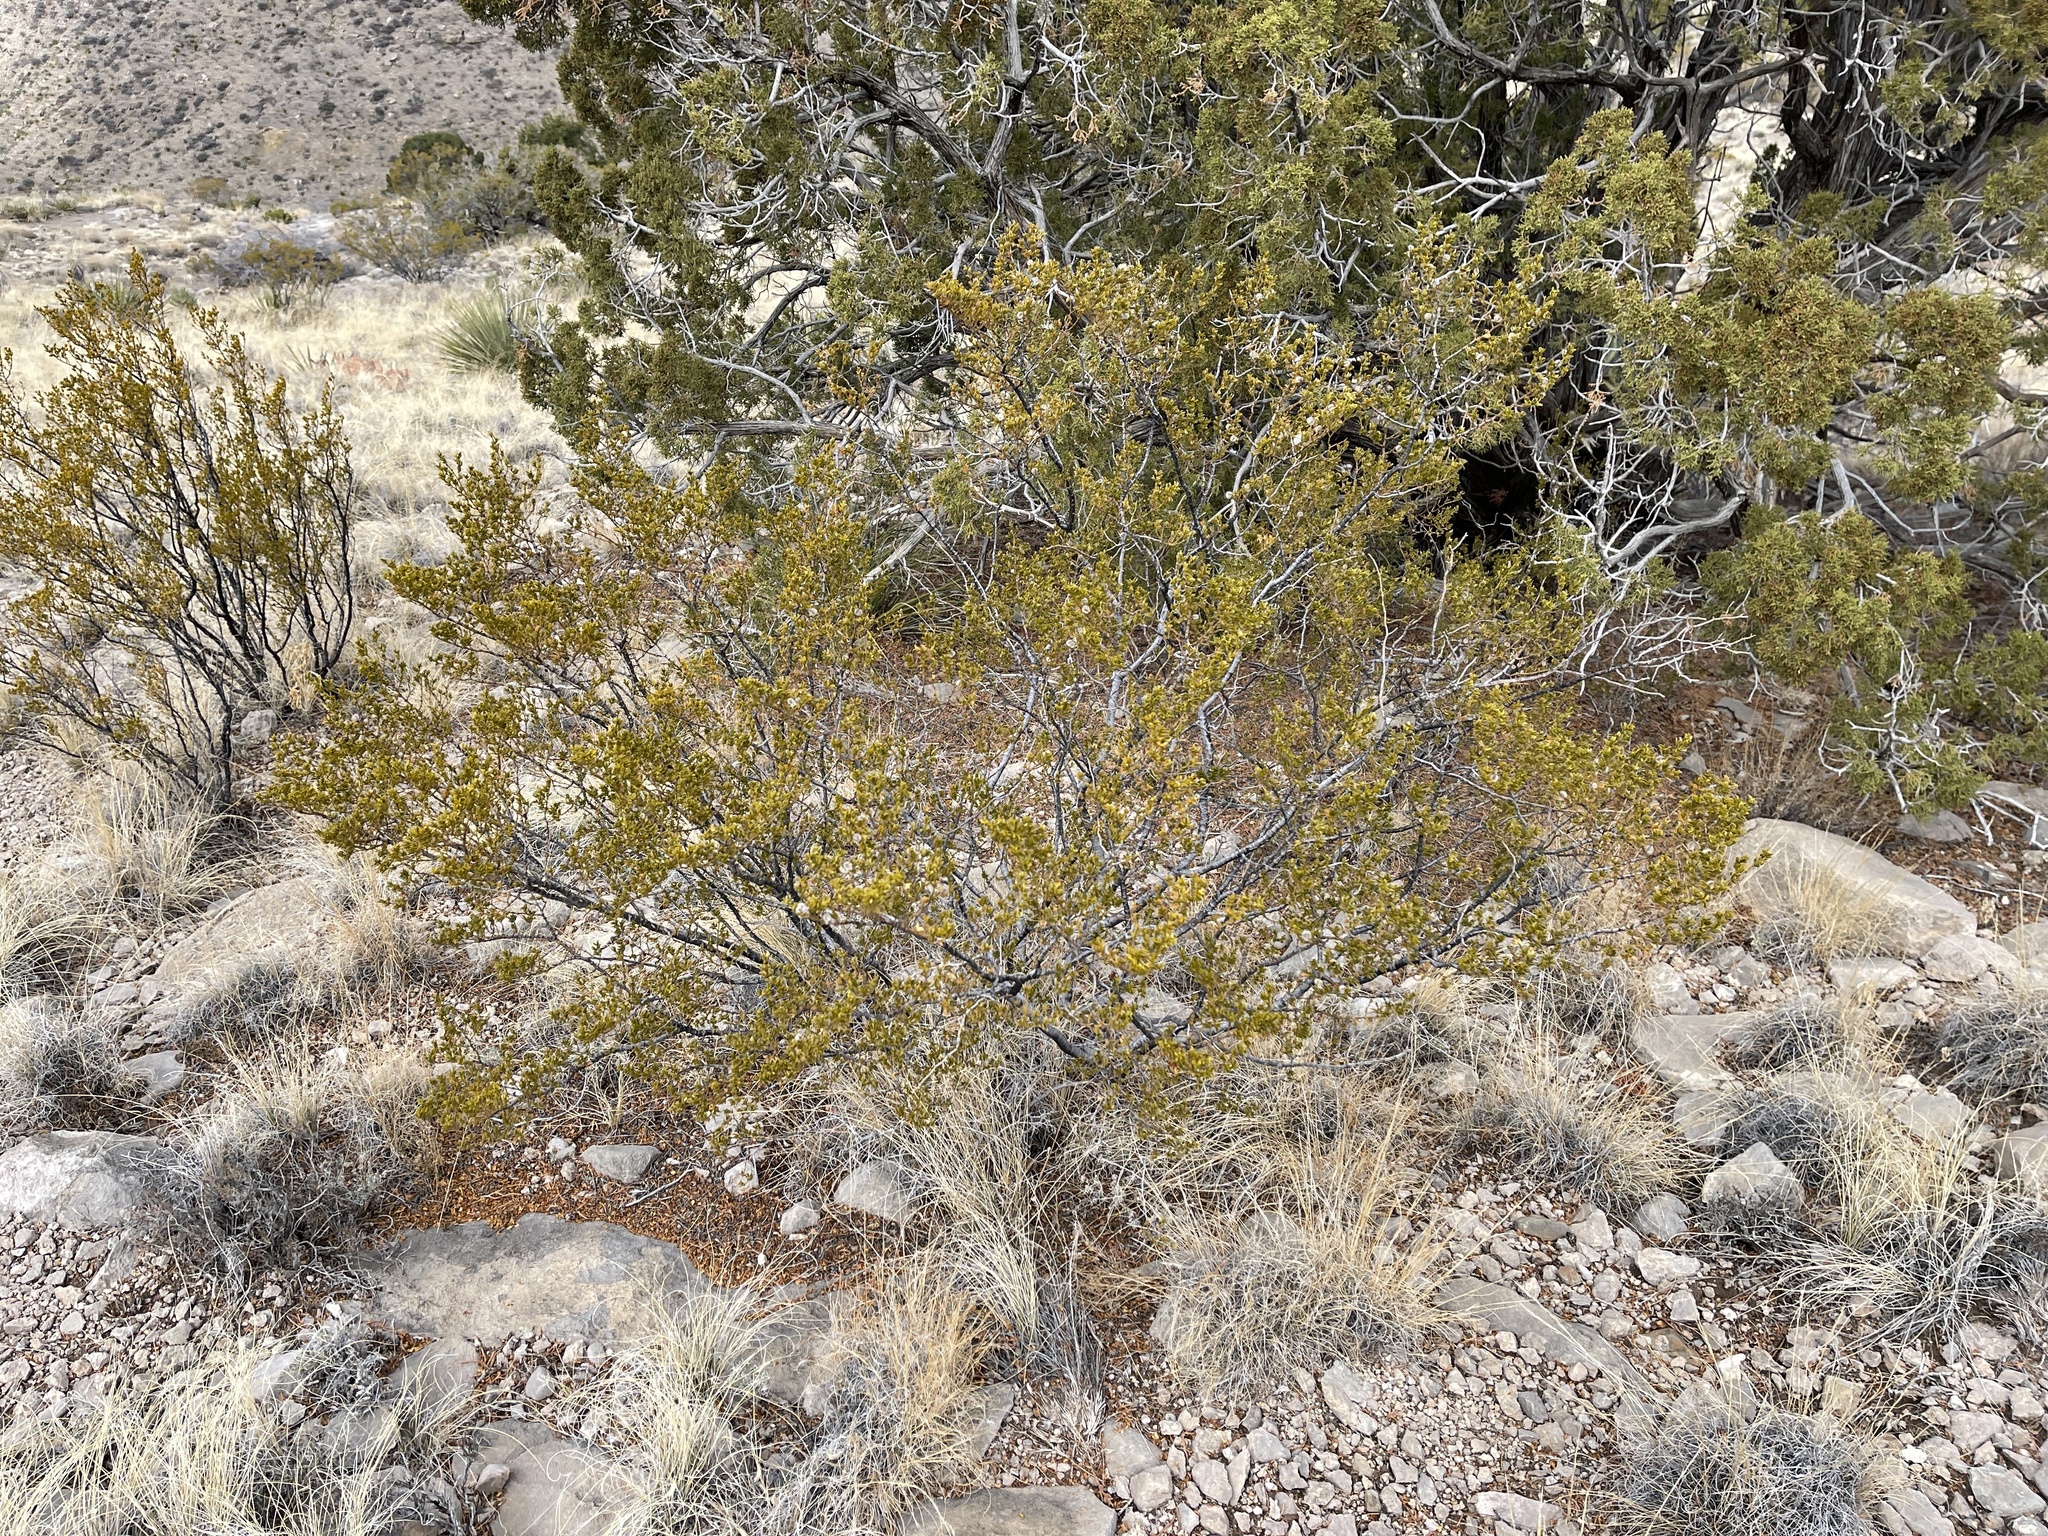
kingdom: Plantae
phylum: Tracheophyta
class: Magnoliopsida
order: Zygophyllales
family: Zygophyllaceae
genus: Larrea
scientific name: Larrea tridentata
